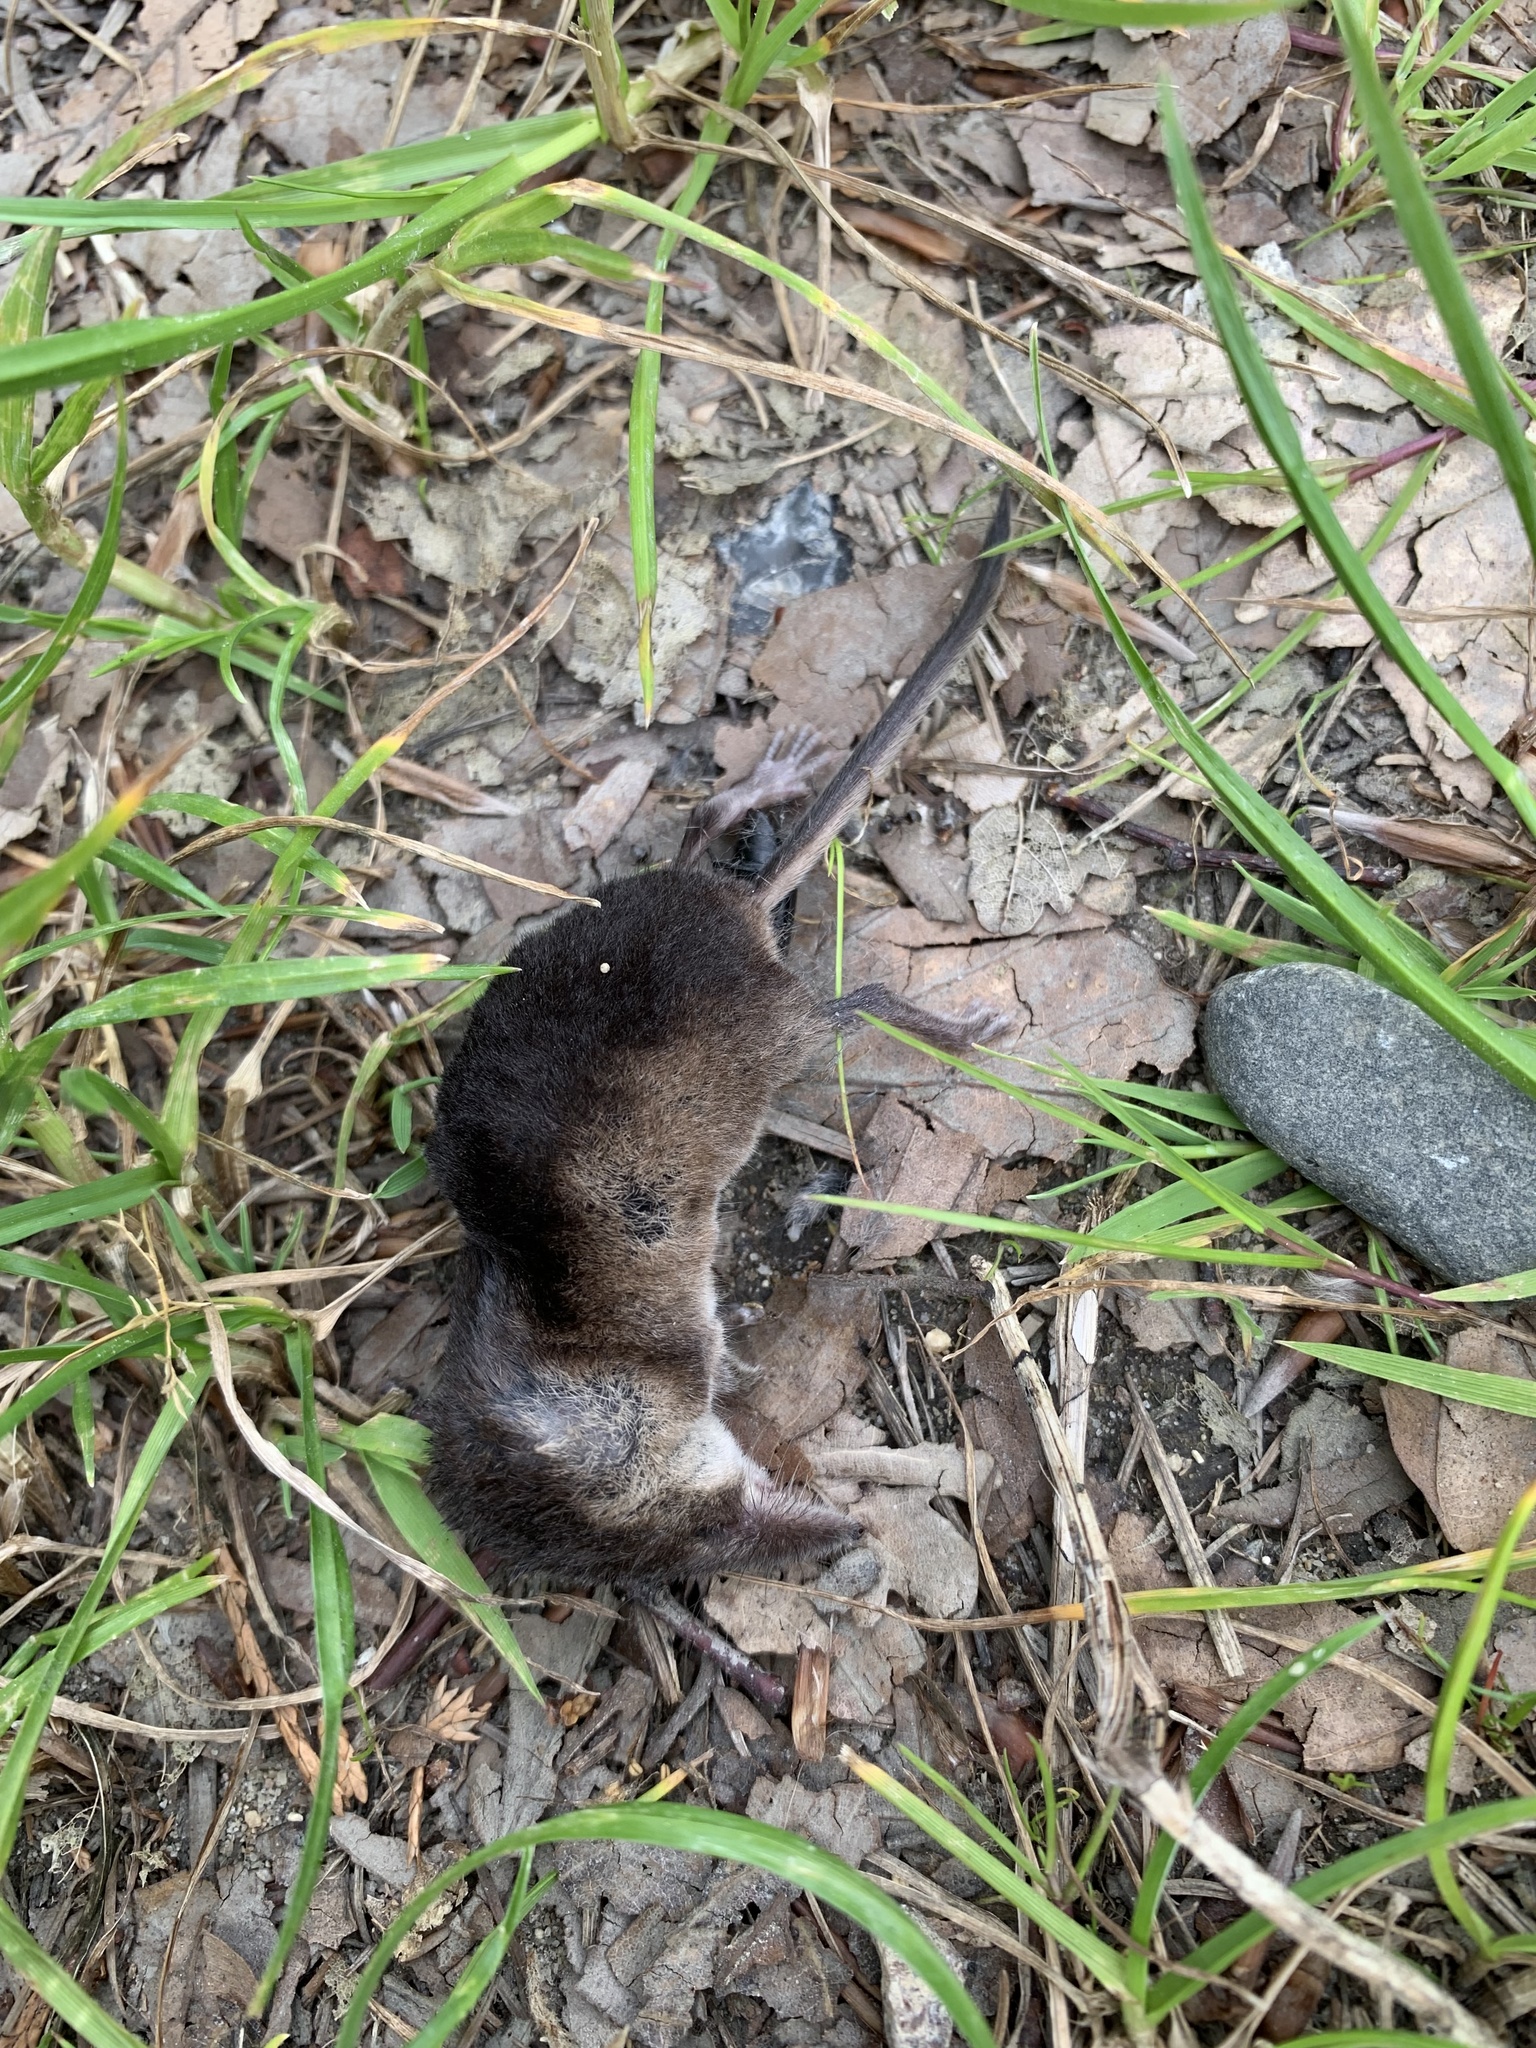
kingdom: Animalia
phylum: Chordata
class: Mammalia
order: Soricomorpha
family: Soricidae
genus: Sorex
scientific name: Sorex araneus
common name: Common shrew
